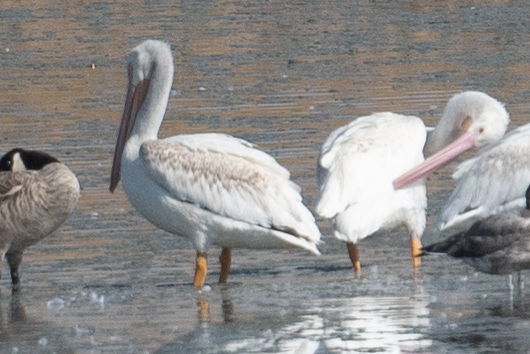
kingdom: Animalia
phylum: Chordata
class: Aves
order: Pelecaniformes
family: Pelecanidae
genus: Pelecanus
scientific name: Pelecanus erythrorhynchos
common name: American white pelican
